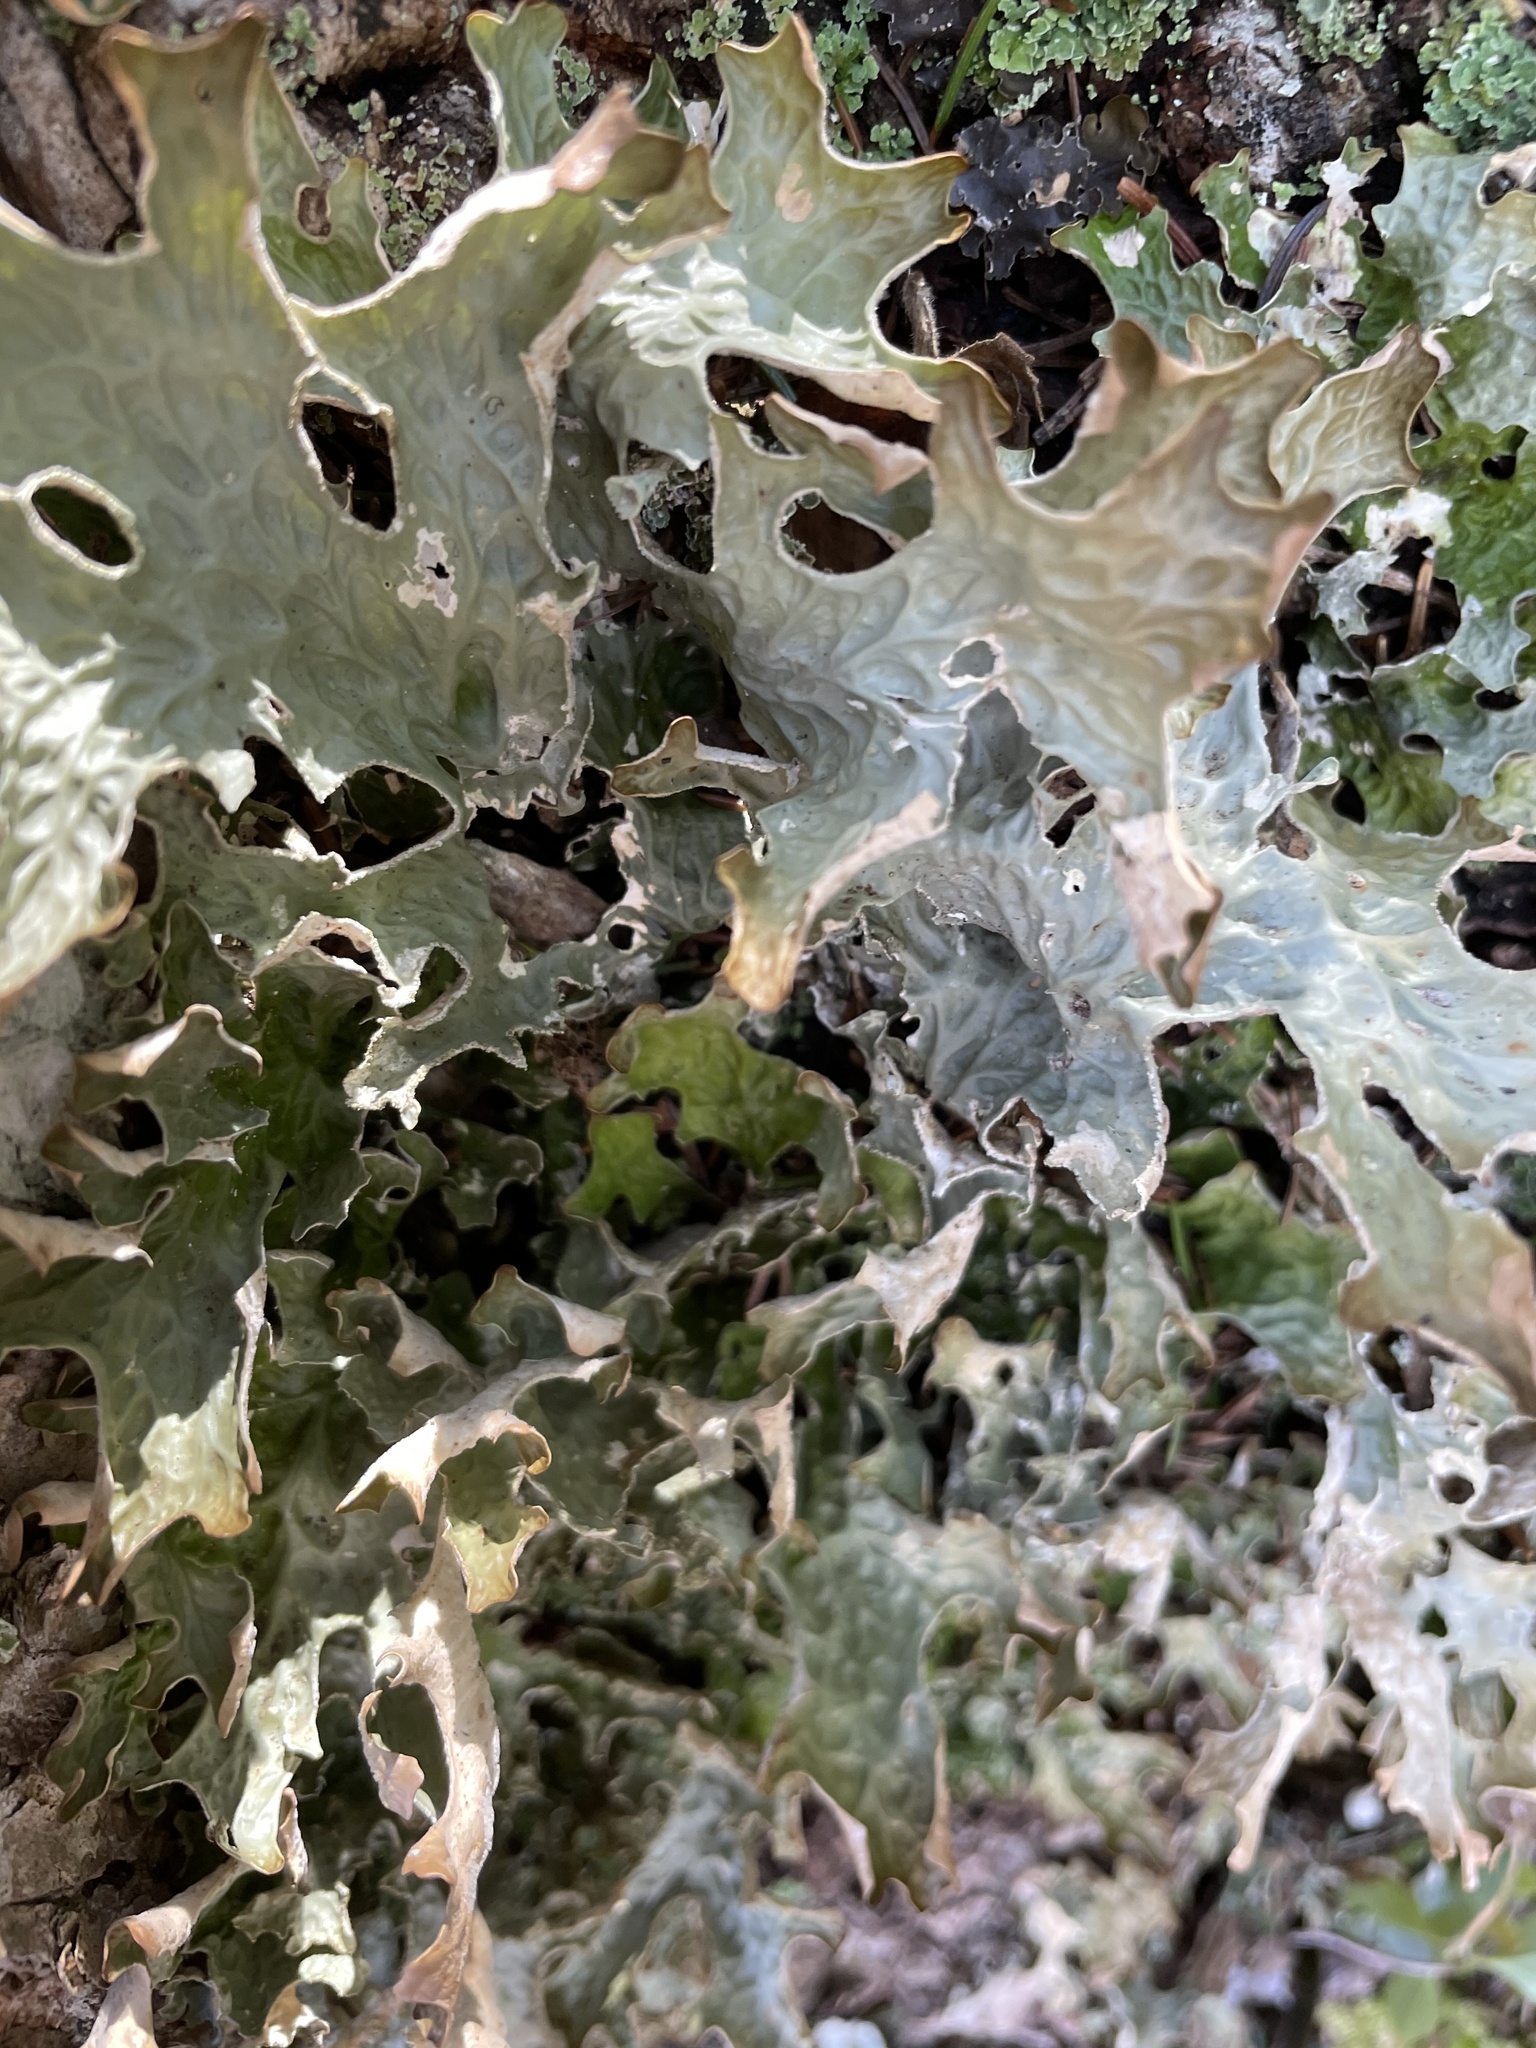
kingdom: Fungi
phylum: Ascomycota
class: Lecanoromycetes
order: Peltigerales
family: Lobariaceae
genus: Lobaria
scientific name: Lobaria pulmonaria
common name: Lungwort
